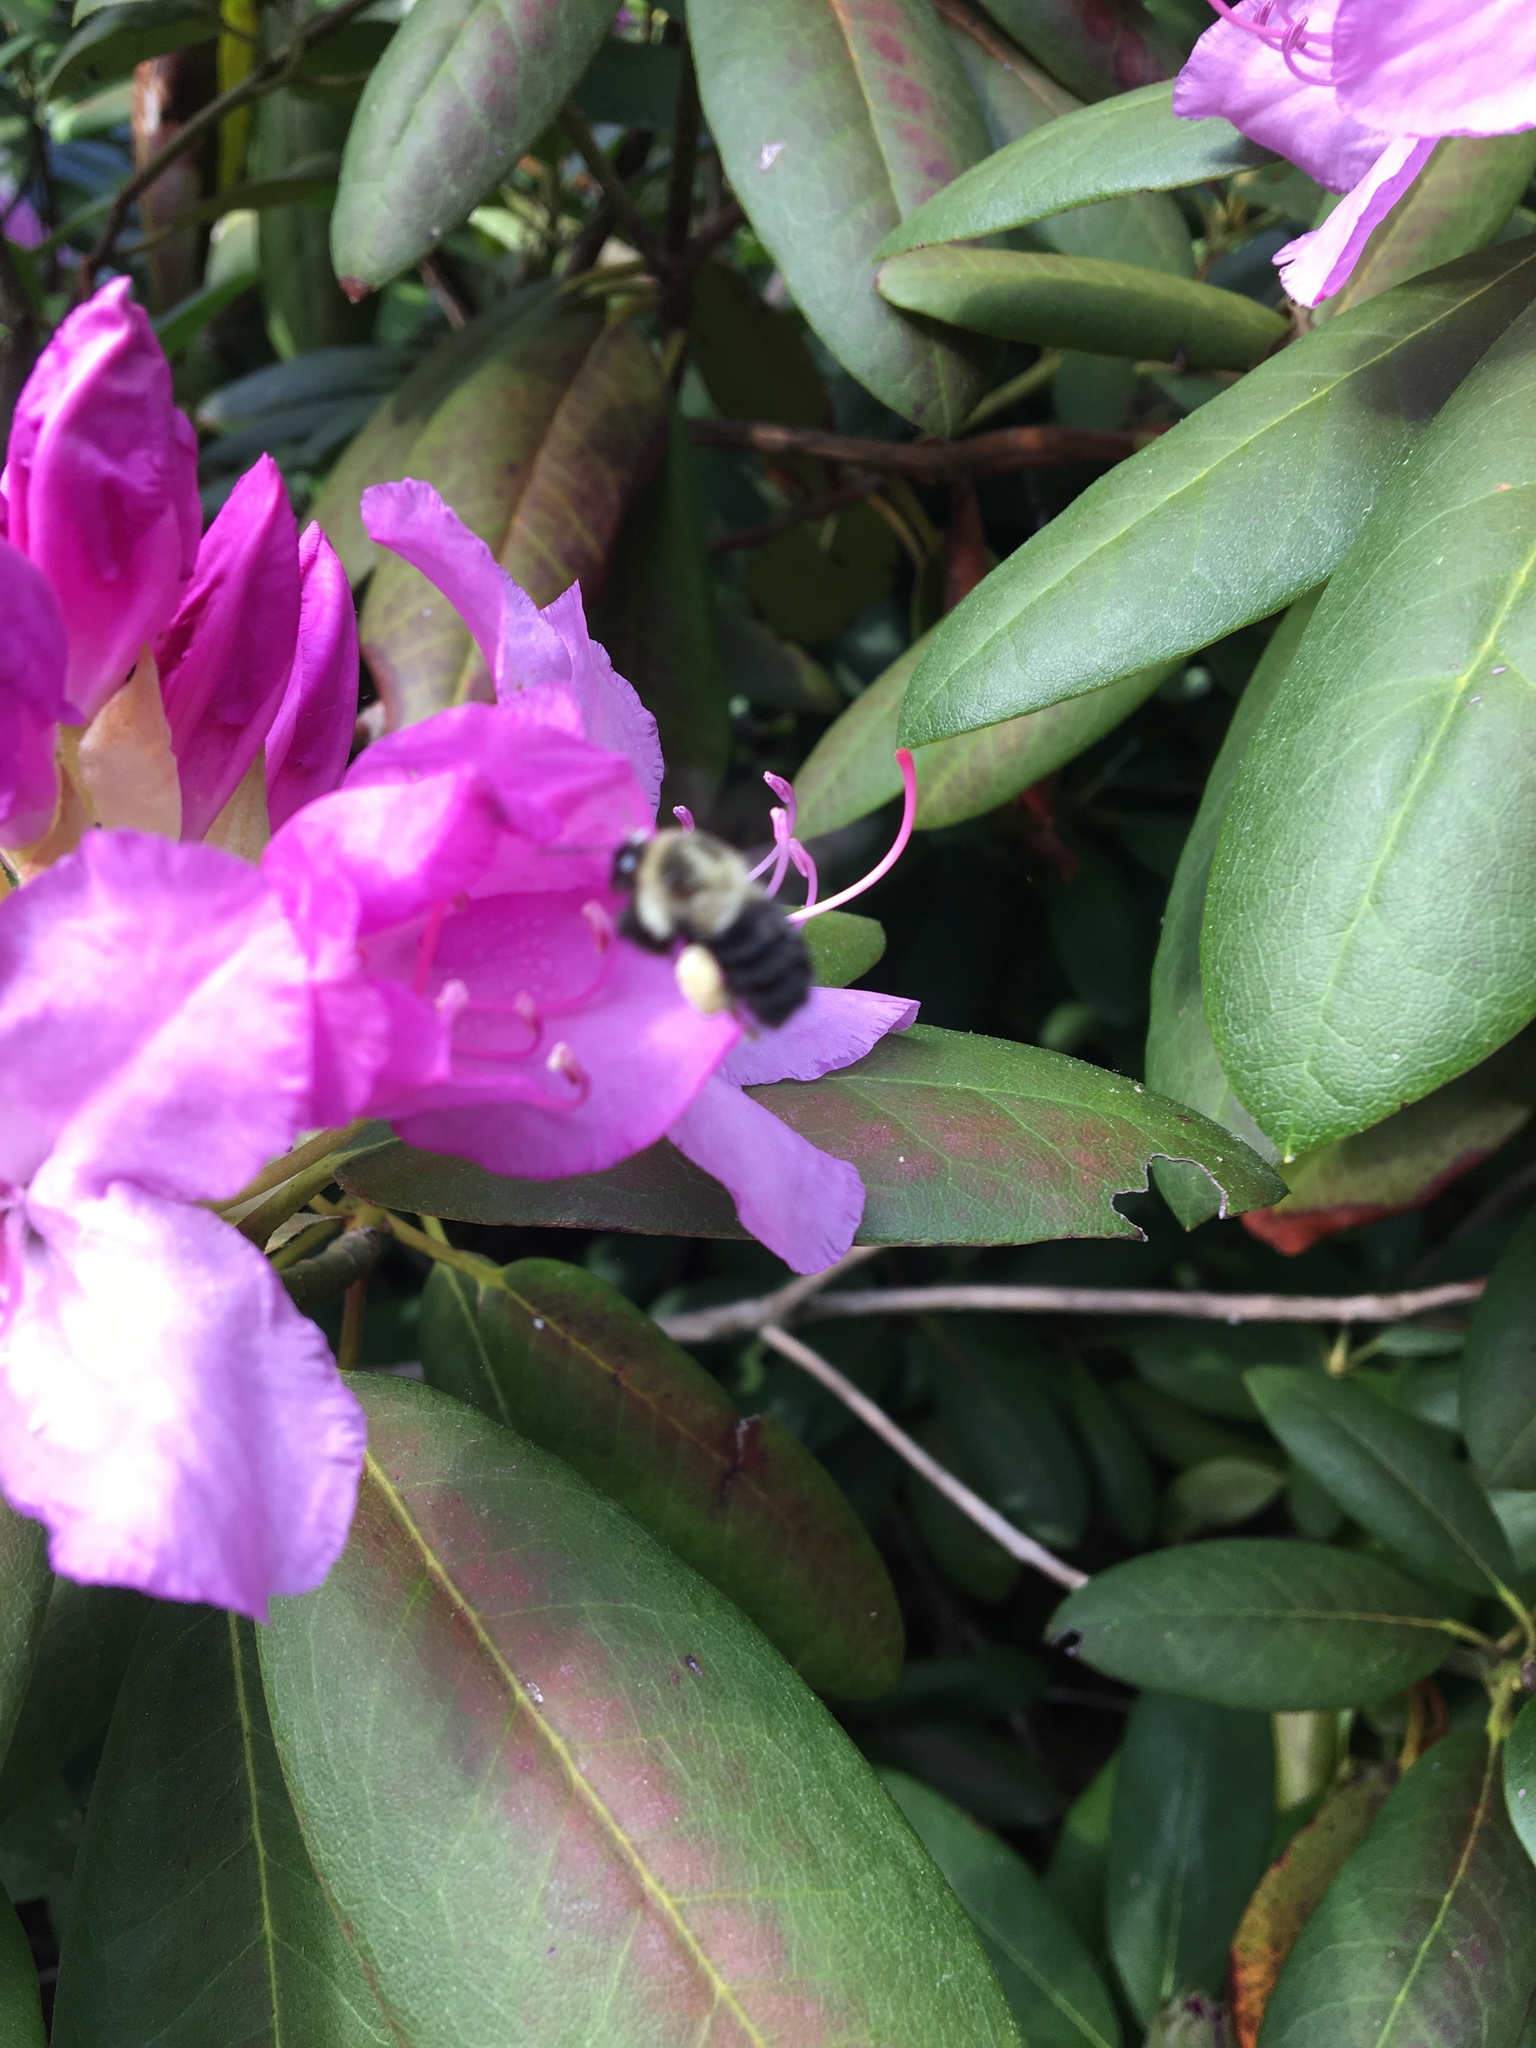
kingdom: Animalia
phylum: Arthropoda
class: Insecta
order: Hymenoptera
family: Apidae
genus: Bombus
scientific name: Bombus impatiens
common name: Common eastern bumble bee
